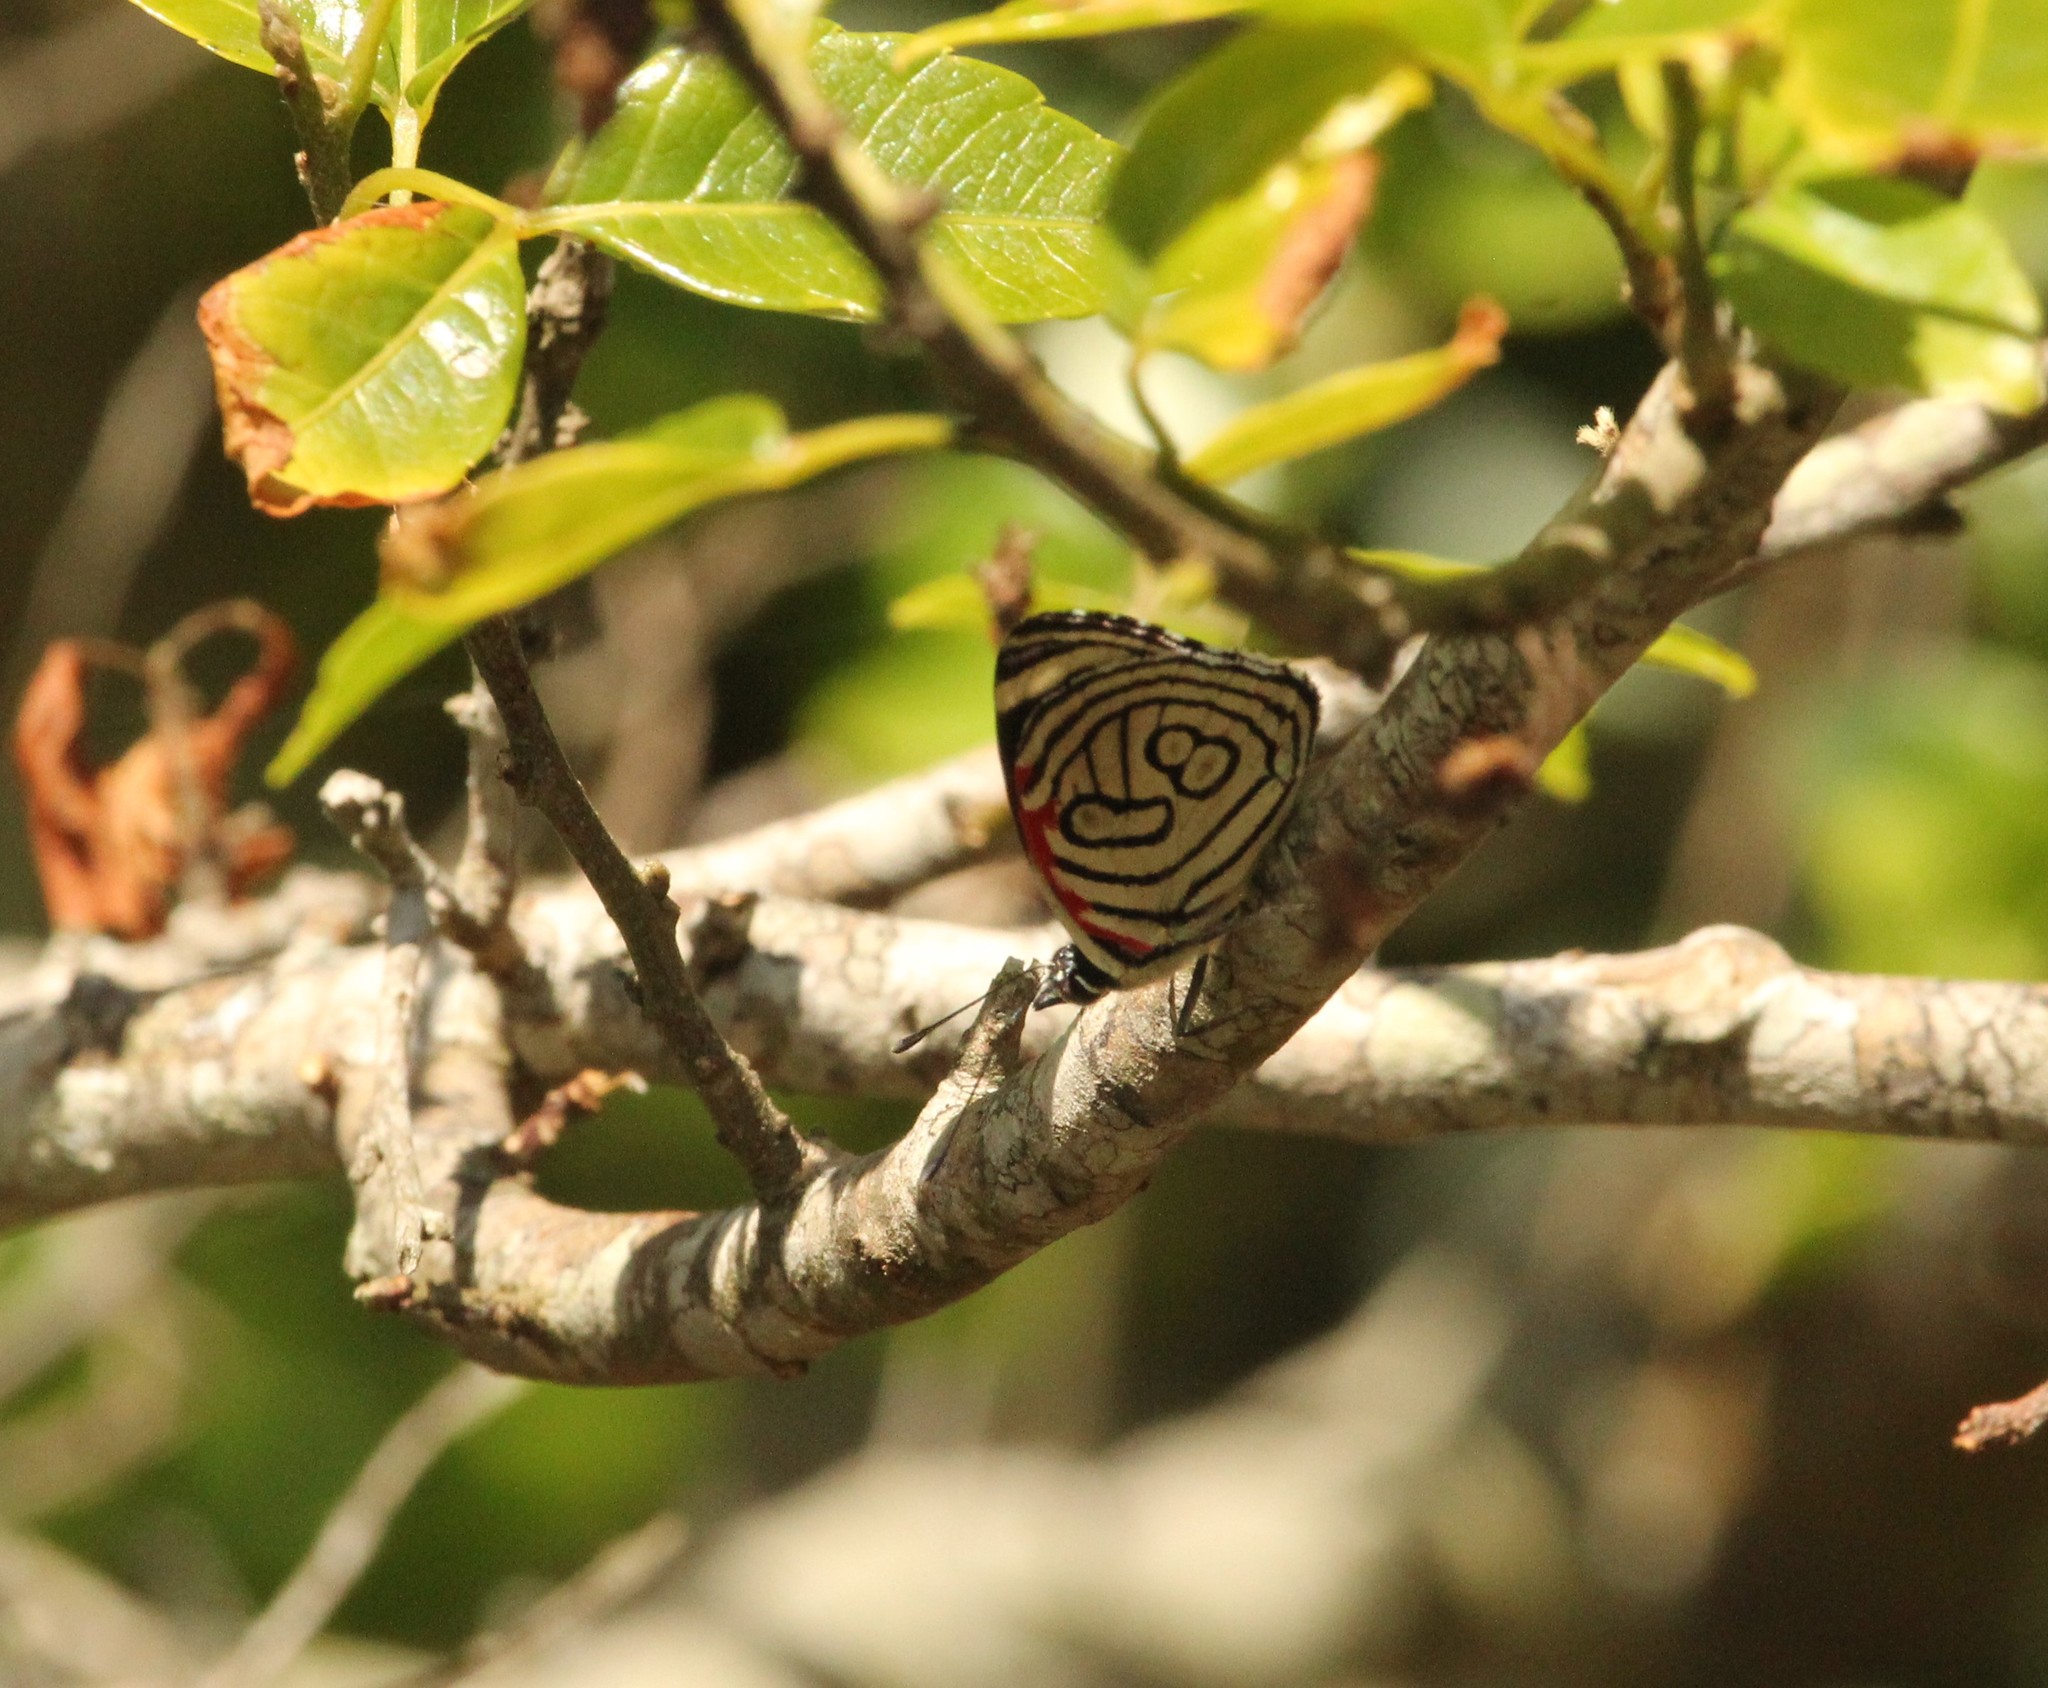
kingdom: Animalia
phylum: Arthropoda
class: Insecta
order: Lepidoptera
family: Nymphalidae
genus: Diaethria
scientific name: Diaethria candrena
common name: Number eighty
